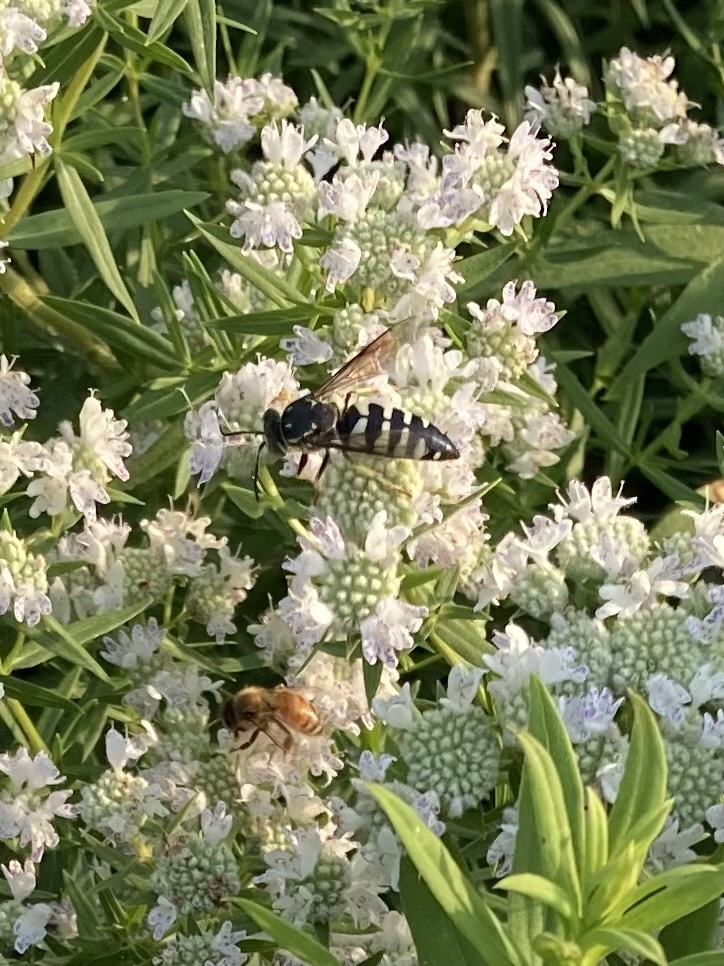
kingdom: Animalia
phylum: Arthropoda
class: Insecta
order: Hymenoptera
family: Crabronidae
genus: Bicyrtes
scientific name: Bicyrtes quadrifasciatus
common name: Four-banded stink bug hunter wasp
